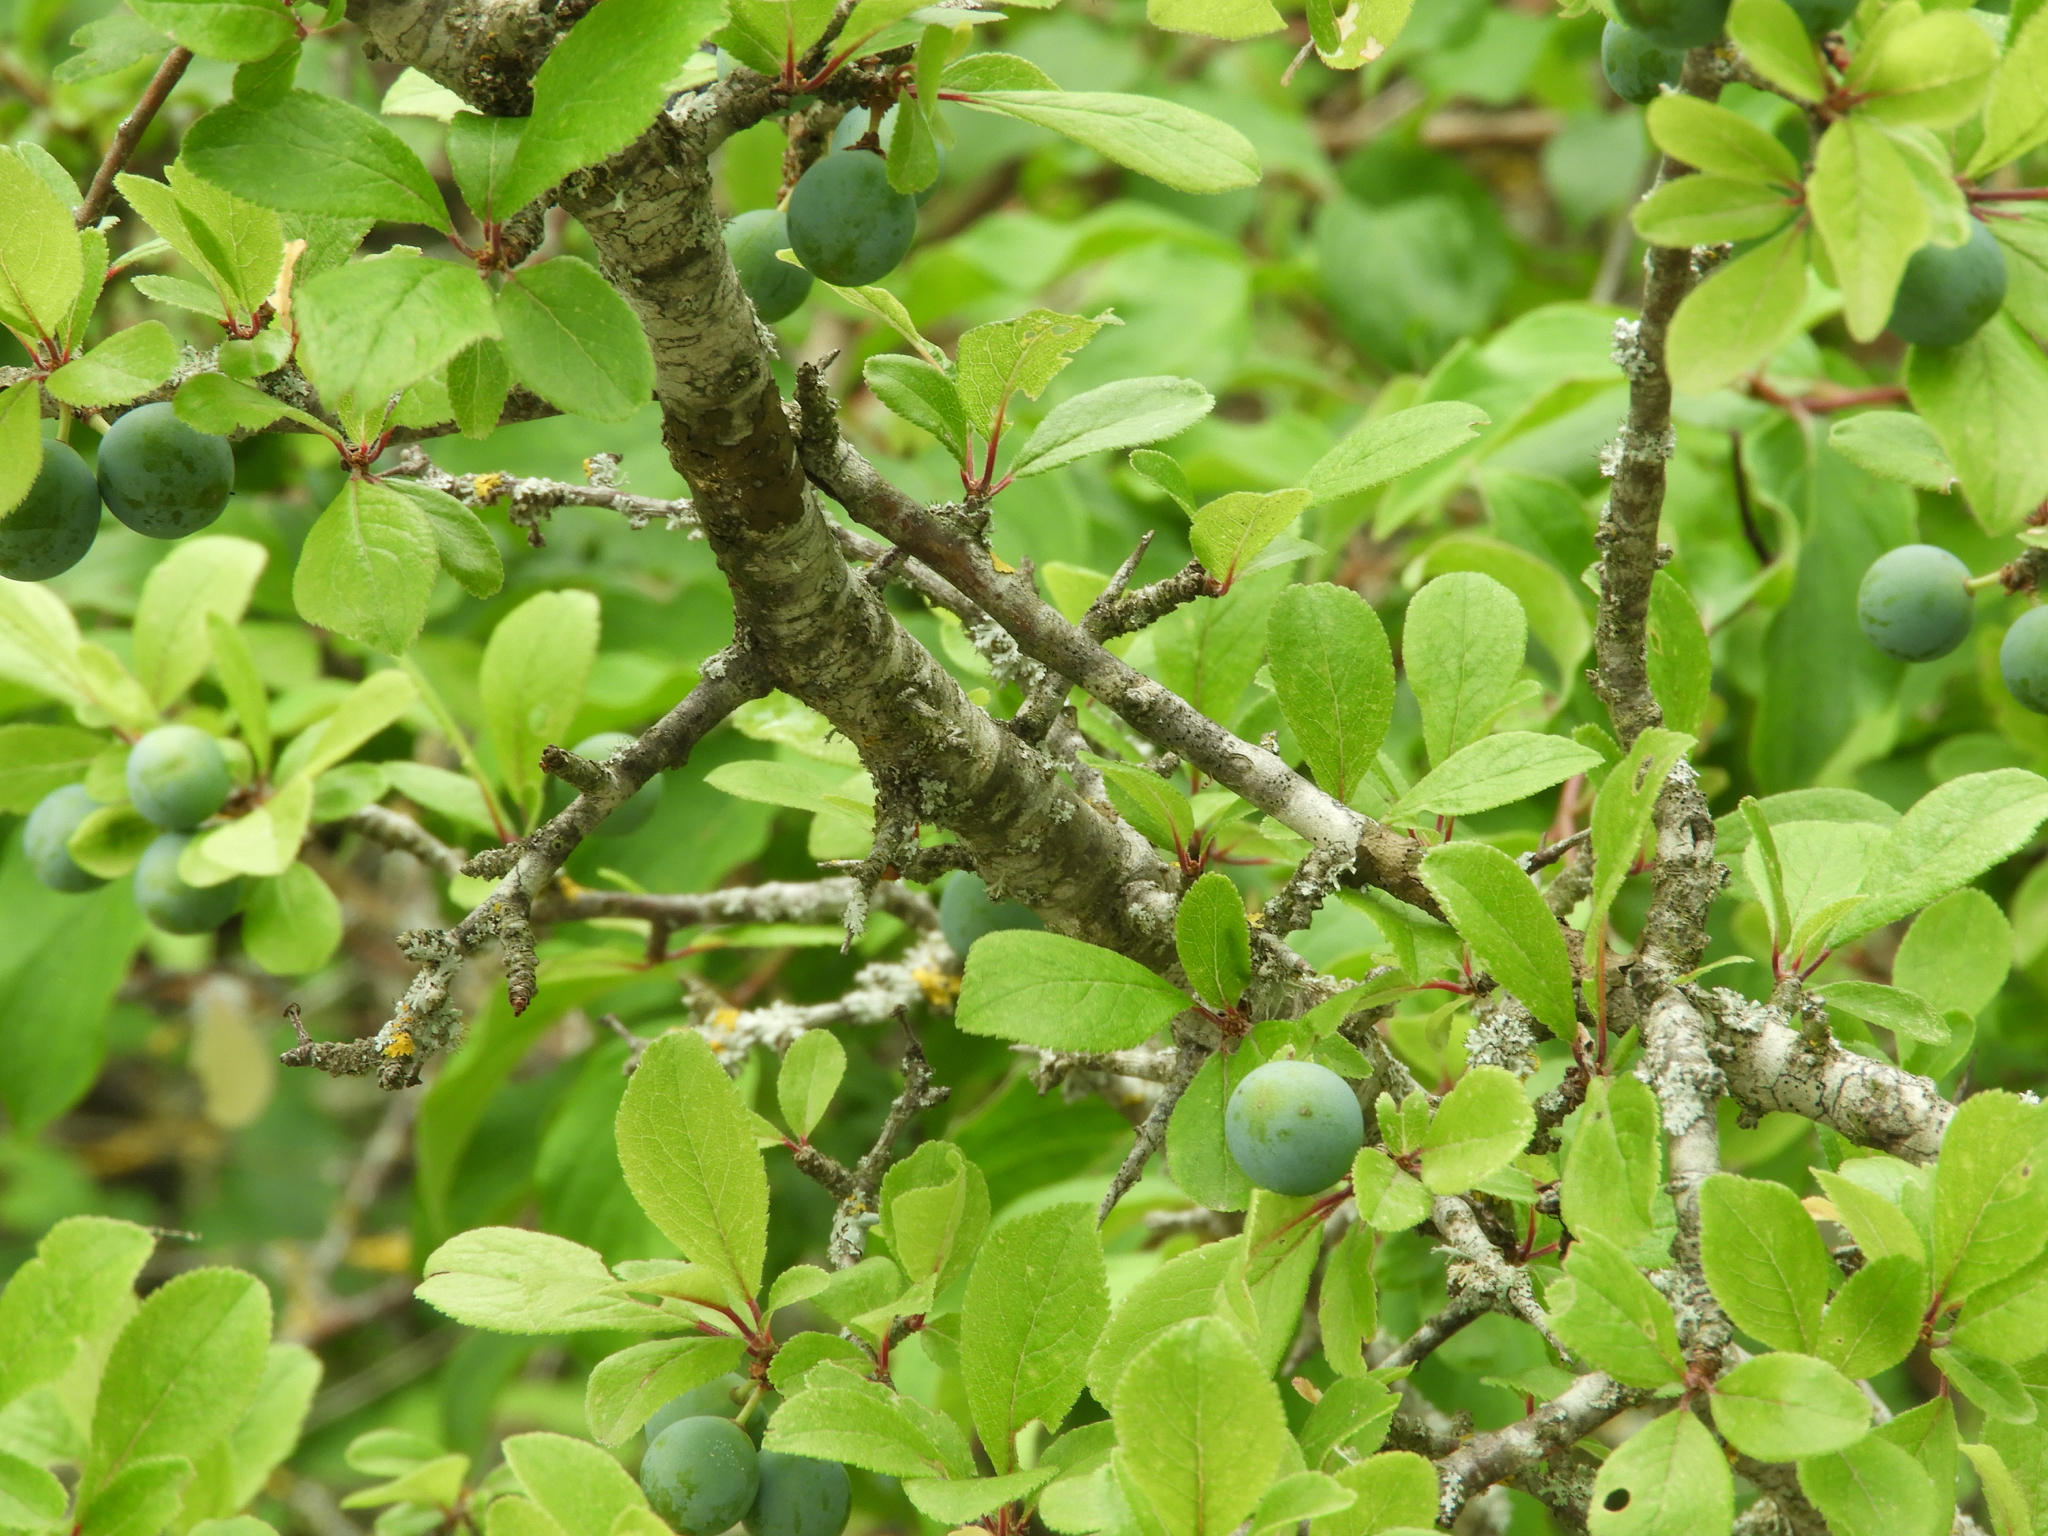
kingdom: Plantae
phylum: Tracheophyta
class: Magnoliopsida
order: Rosales
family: Rosaceae
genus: Prunus
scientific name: Prunus spinosa
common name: Blackthorn
